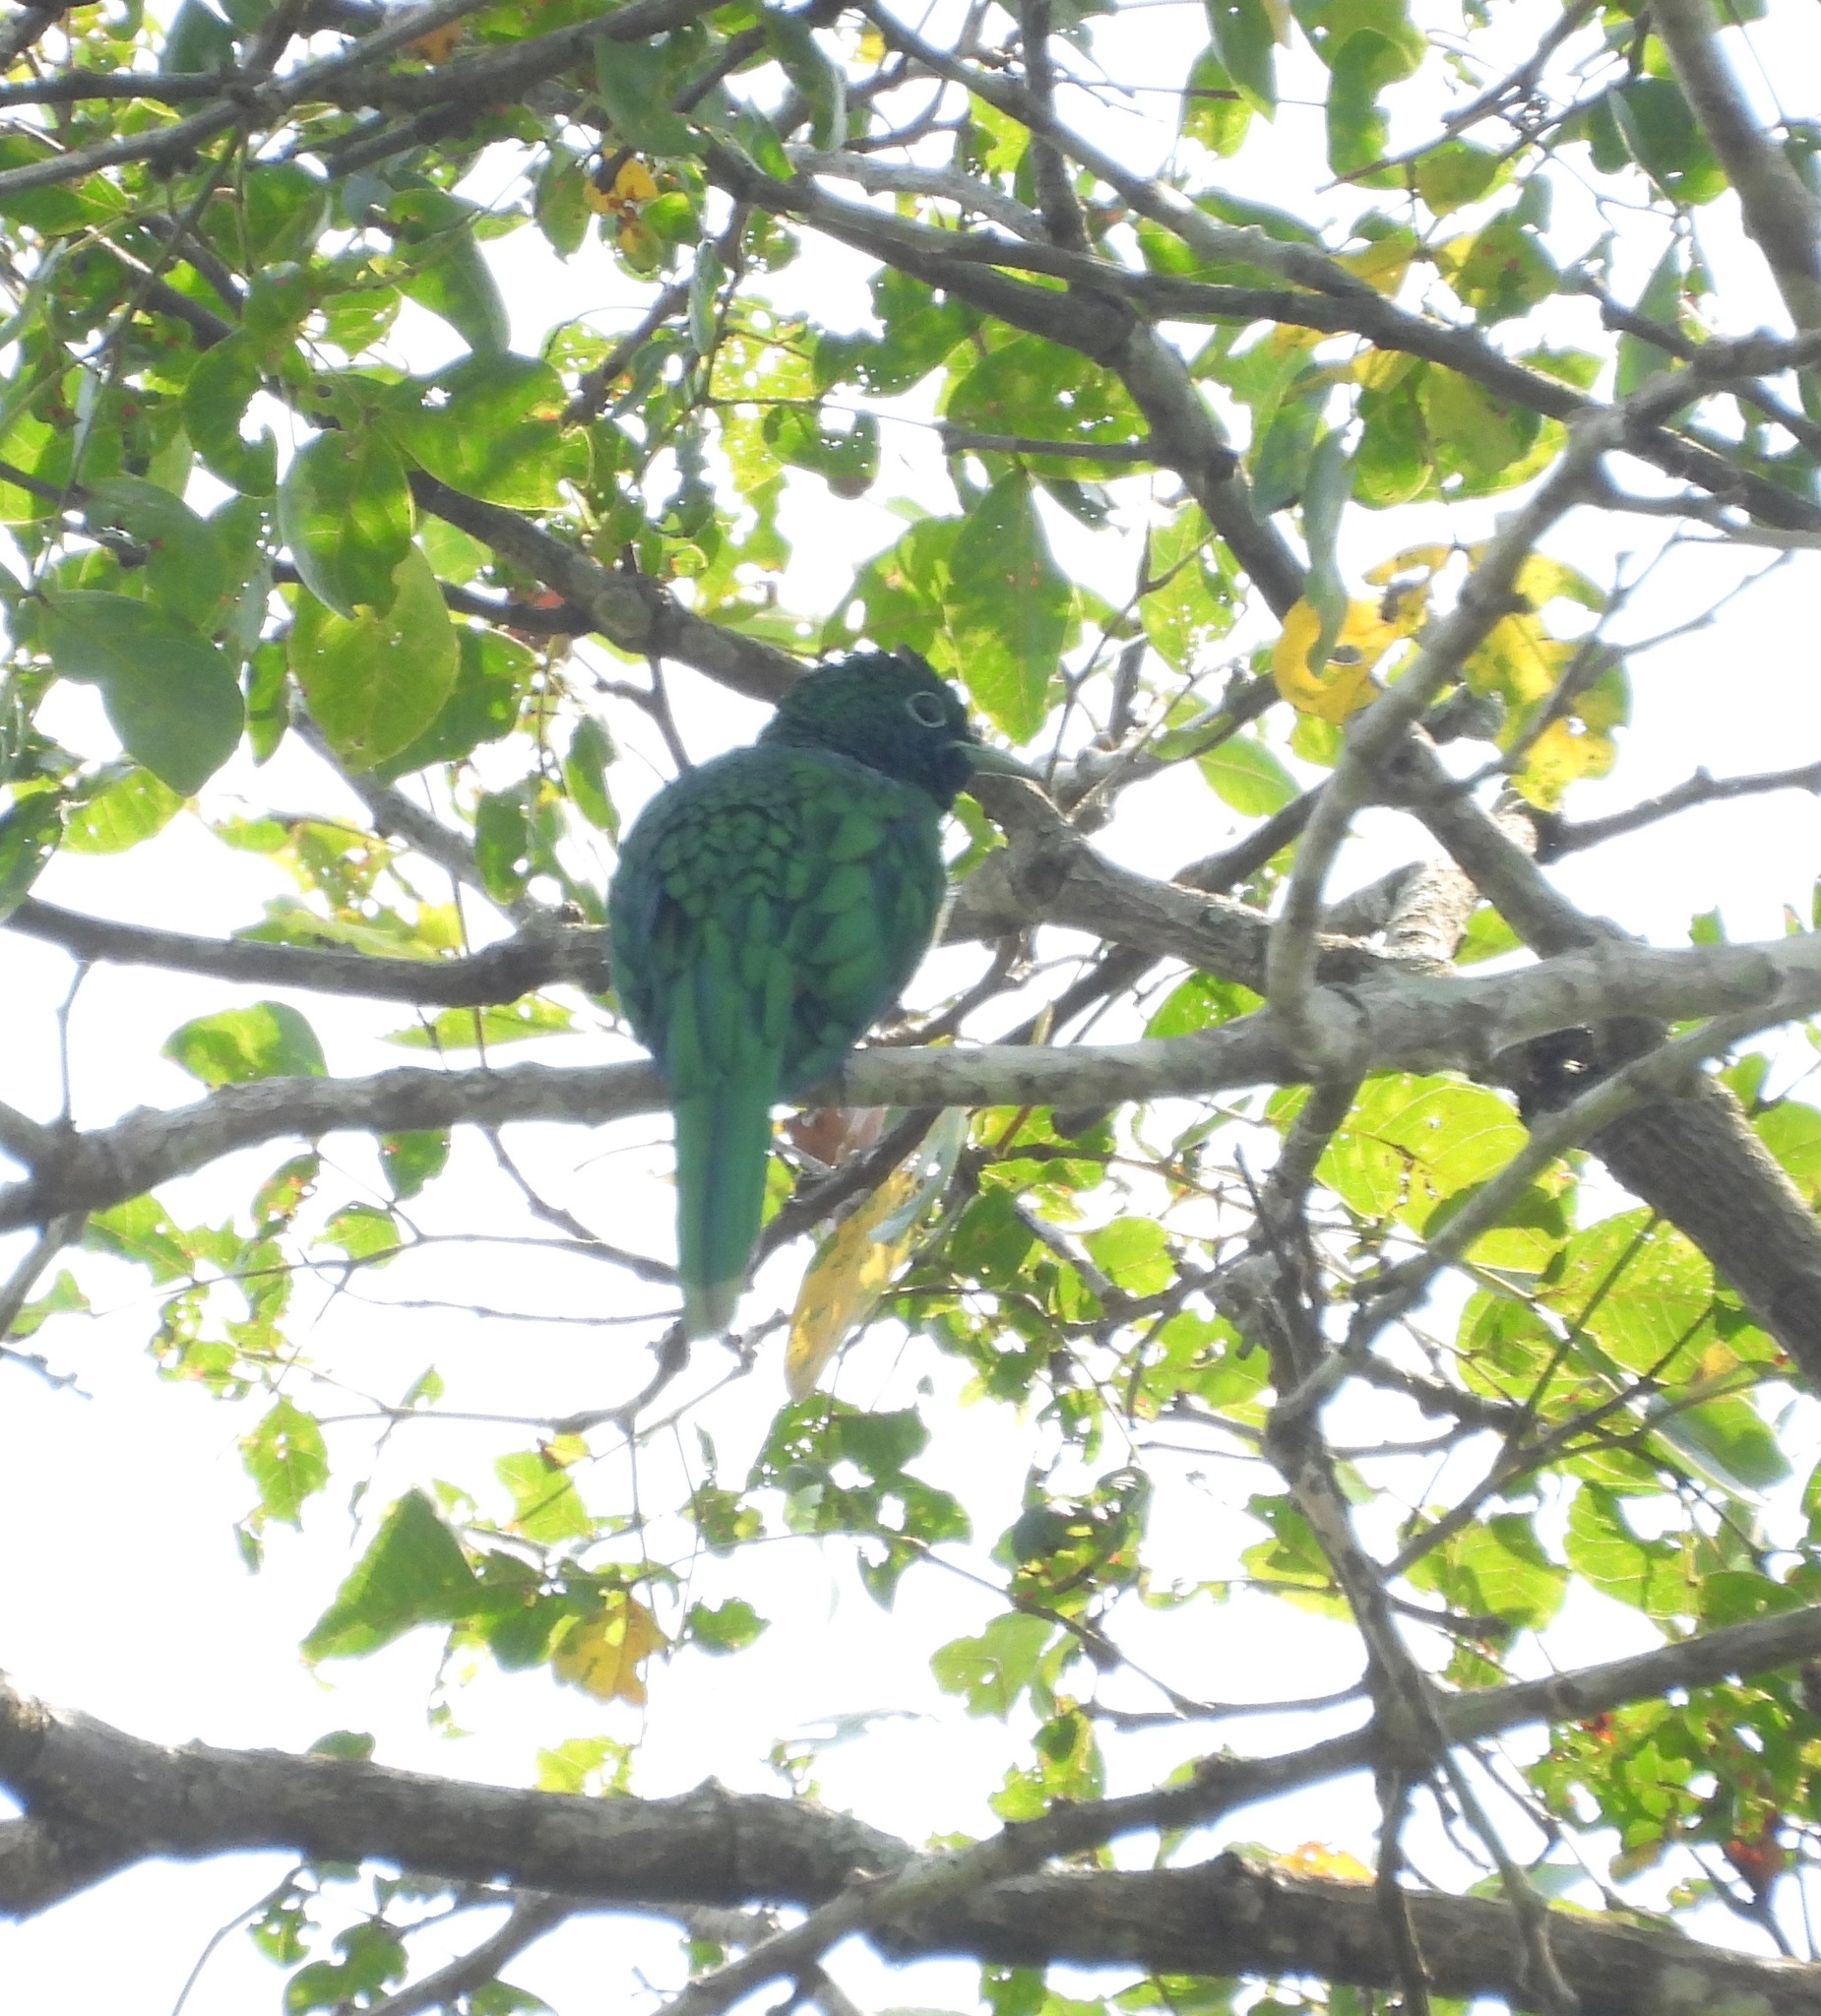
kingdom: Animalia
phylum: Chordata
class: Aves
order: Cuculiformes
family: Cuculidae
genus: Chrysococcyx
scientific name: Chrysococcyx cupreus
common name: African emerald cuckoo
